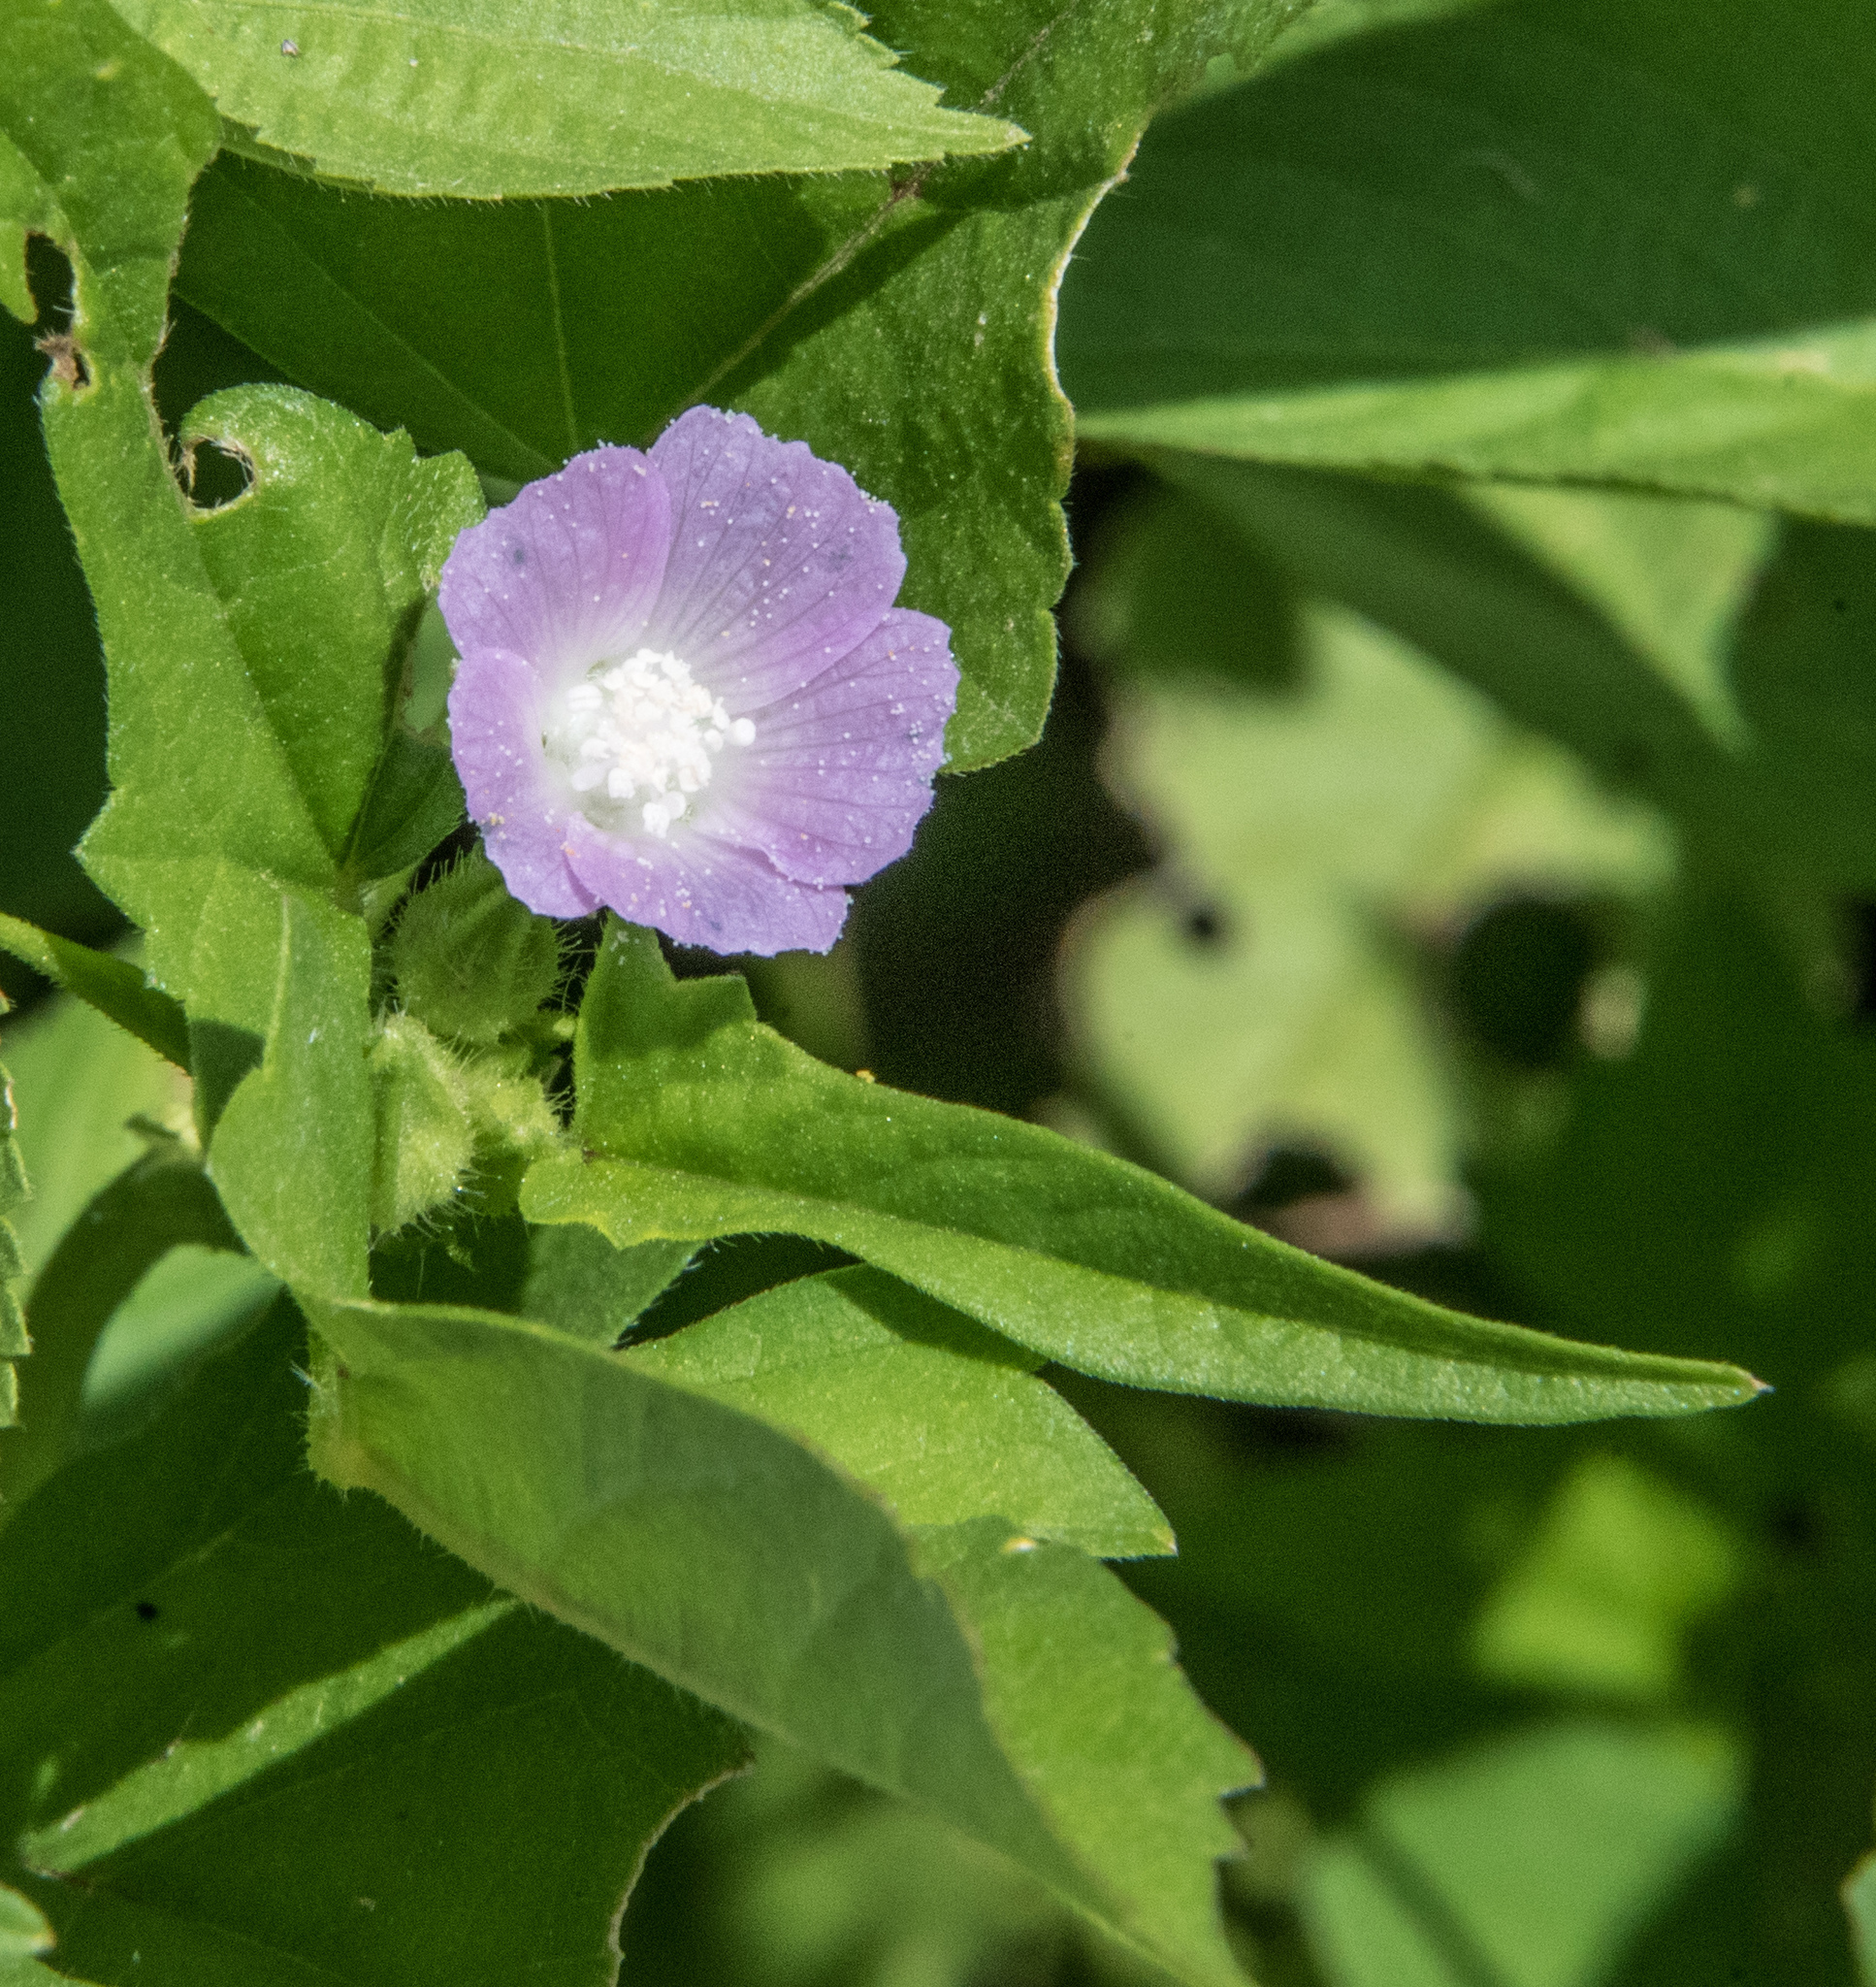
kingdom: Plantae
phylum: Tracheophyta
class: Magnoliopsida
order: Malvales
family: Malvaceae
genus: Anoda
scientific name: Anoda cristata
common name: Spurred anoda
